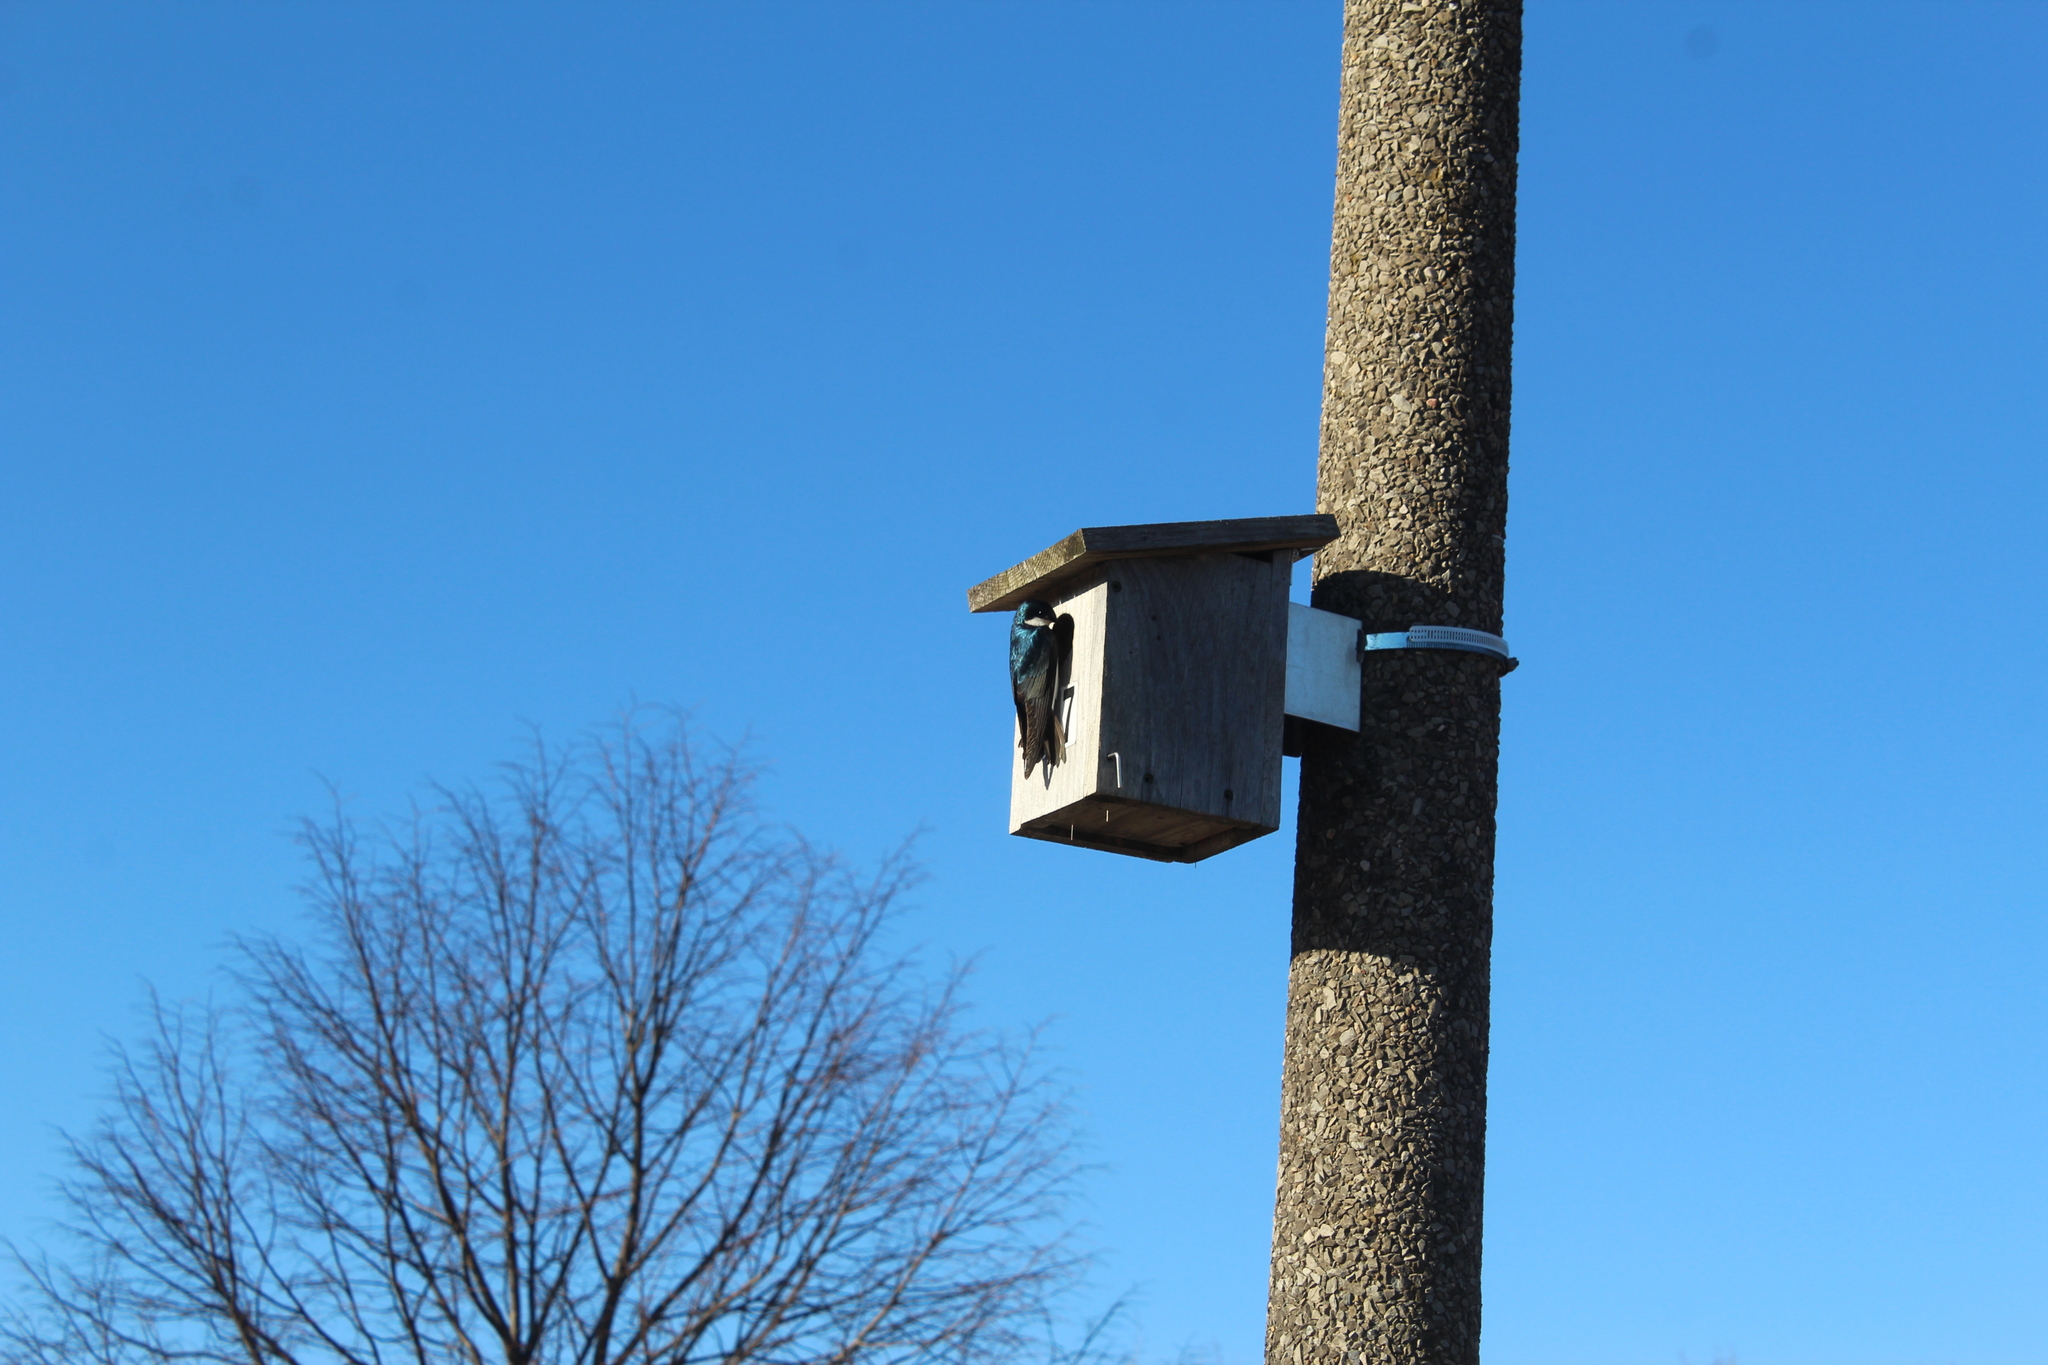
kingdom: Animalia
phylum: Chordata
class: Aves
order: Passeriformes
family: Hirundinidae
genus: Tachycineta
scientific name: Tachycineta bicolor
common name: Tree swallow
